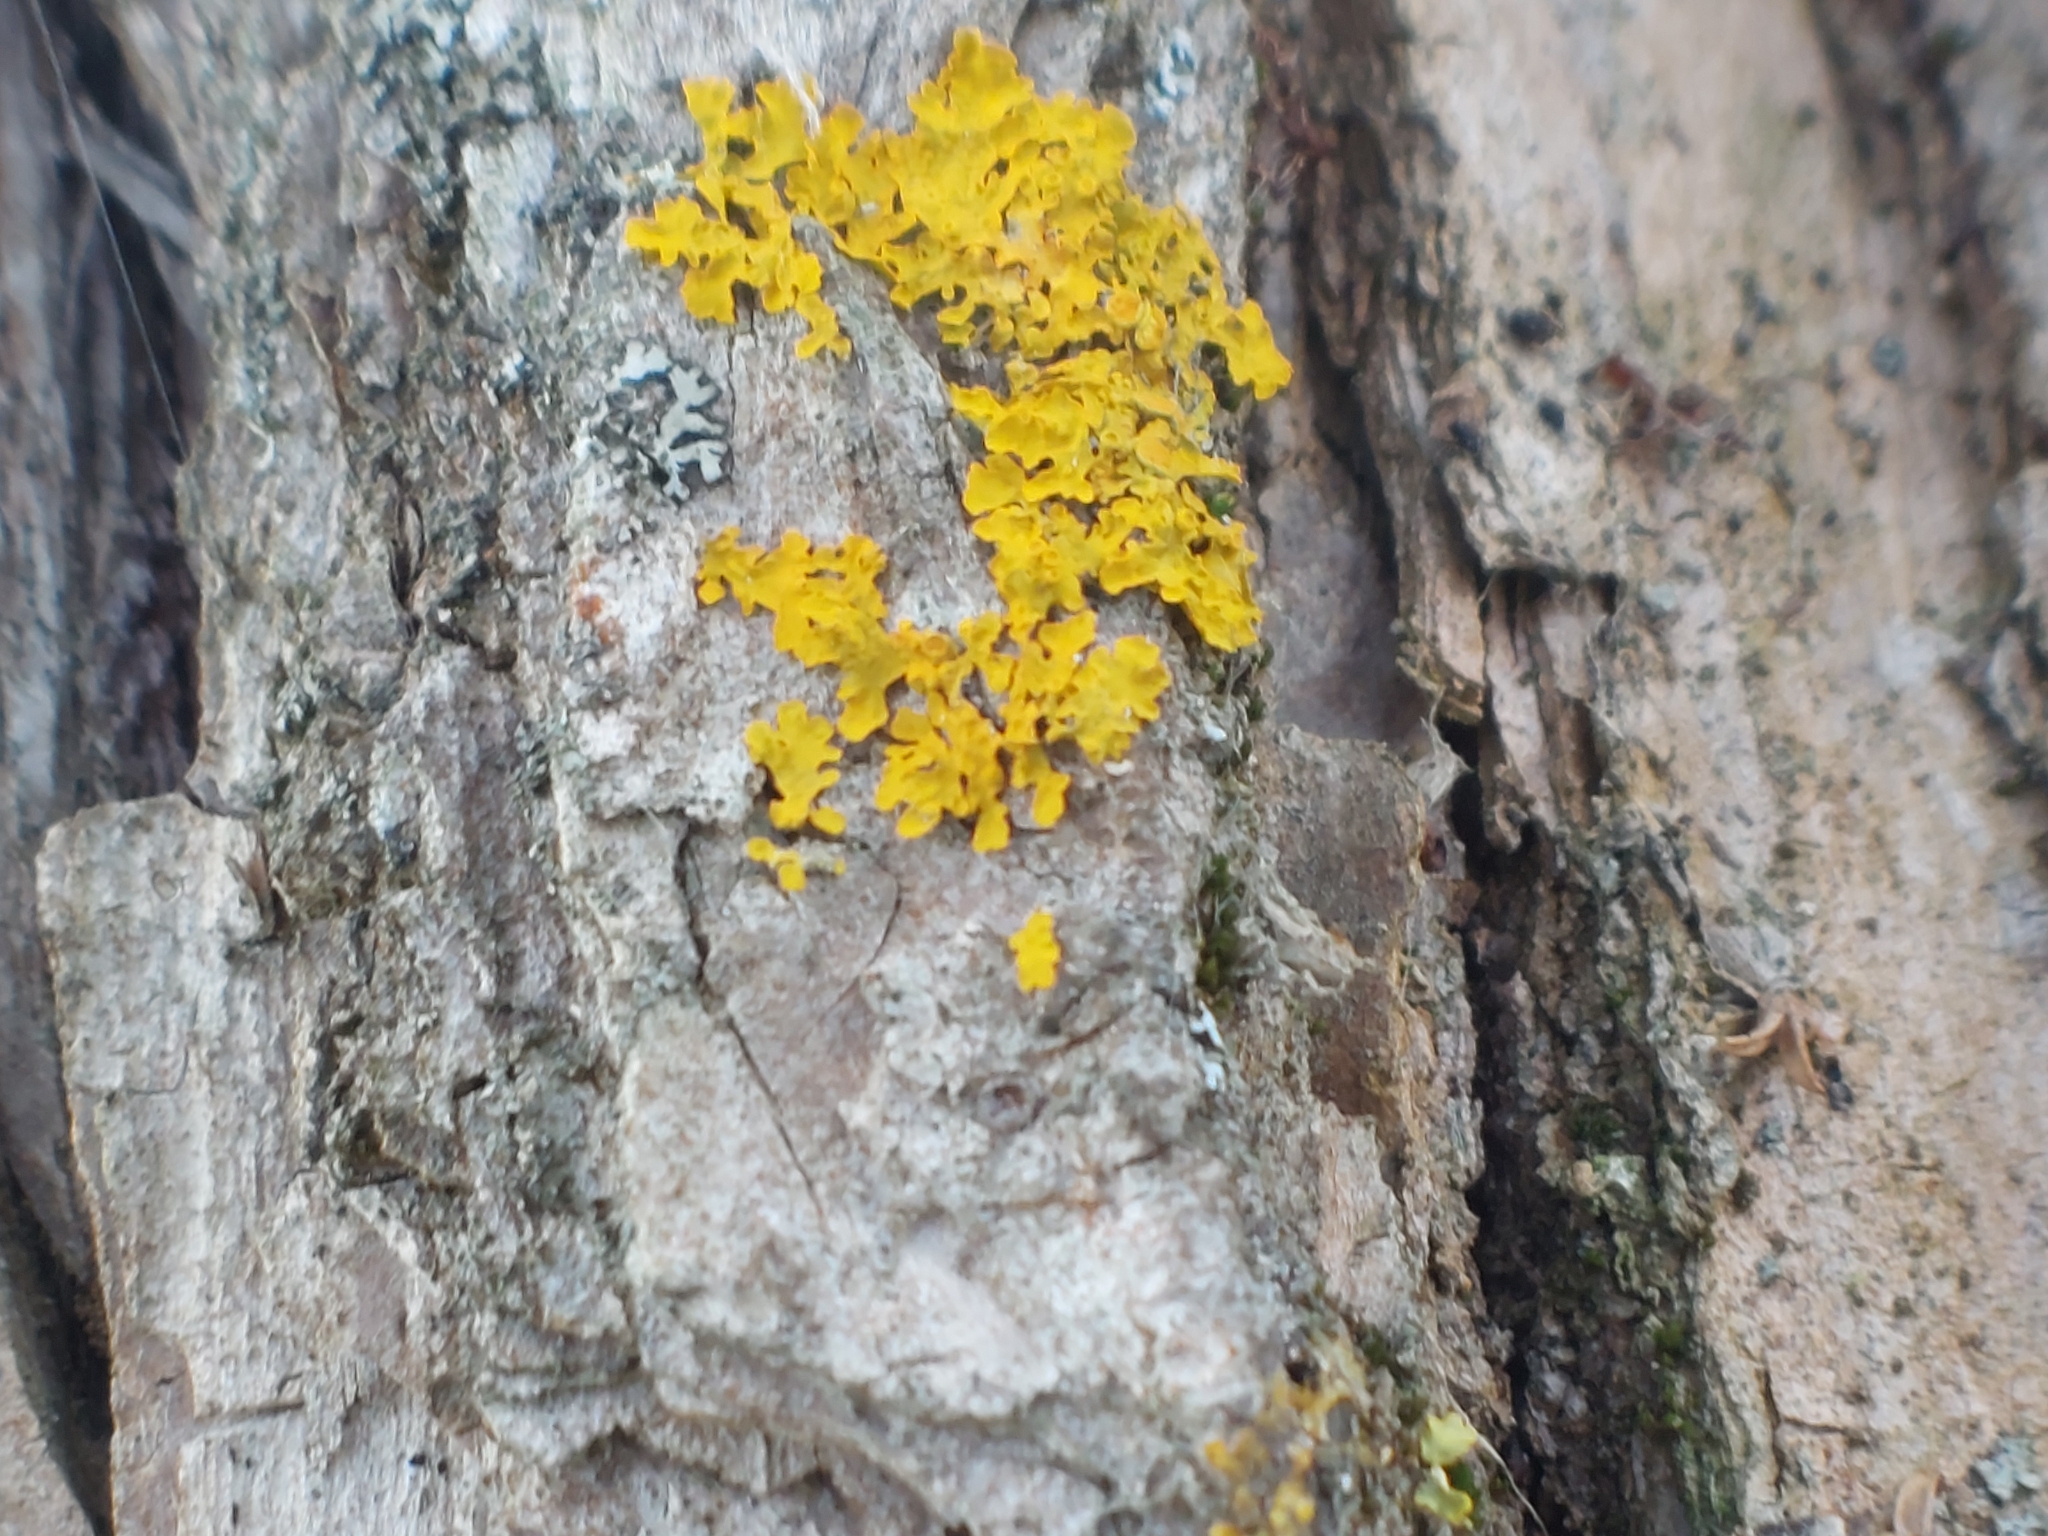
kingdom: Fungi
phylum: Ascomycota
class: Lecanoromycetes
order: Teloschistales
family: Teloschistaceae
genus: Xanthoria
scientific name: Xanthoria parietina
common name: Common orange lichen
